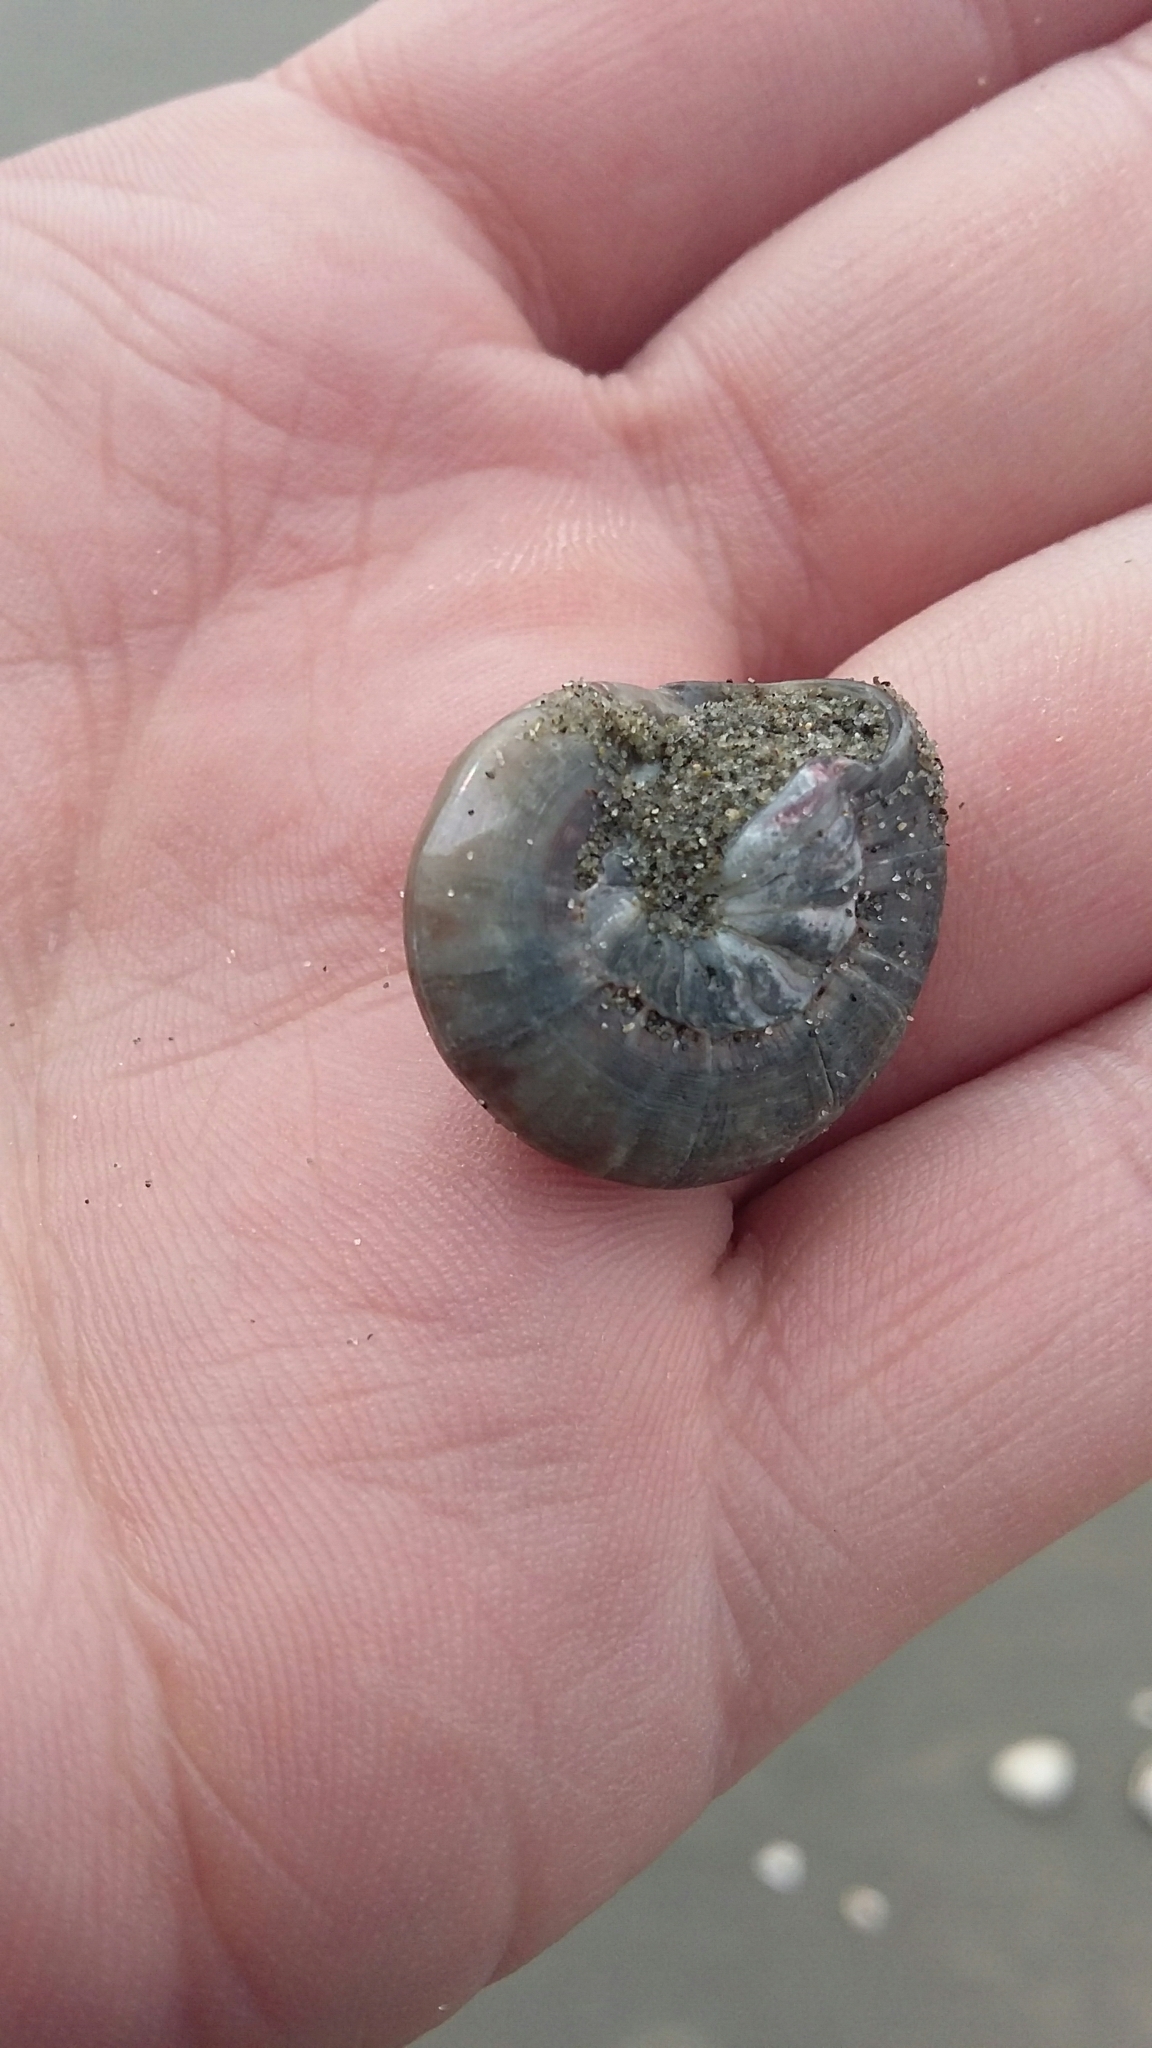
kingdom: Animalia
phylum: Mollusca
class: Gastropoda
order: Trochida
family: Trochidae
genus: Zethalia
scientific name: Zethalia zelandica
